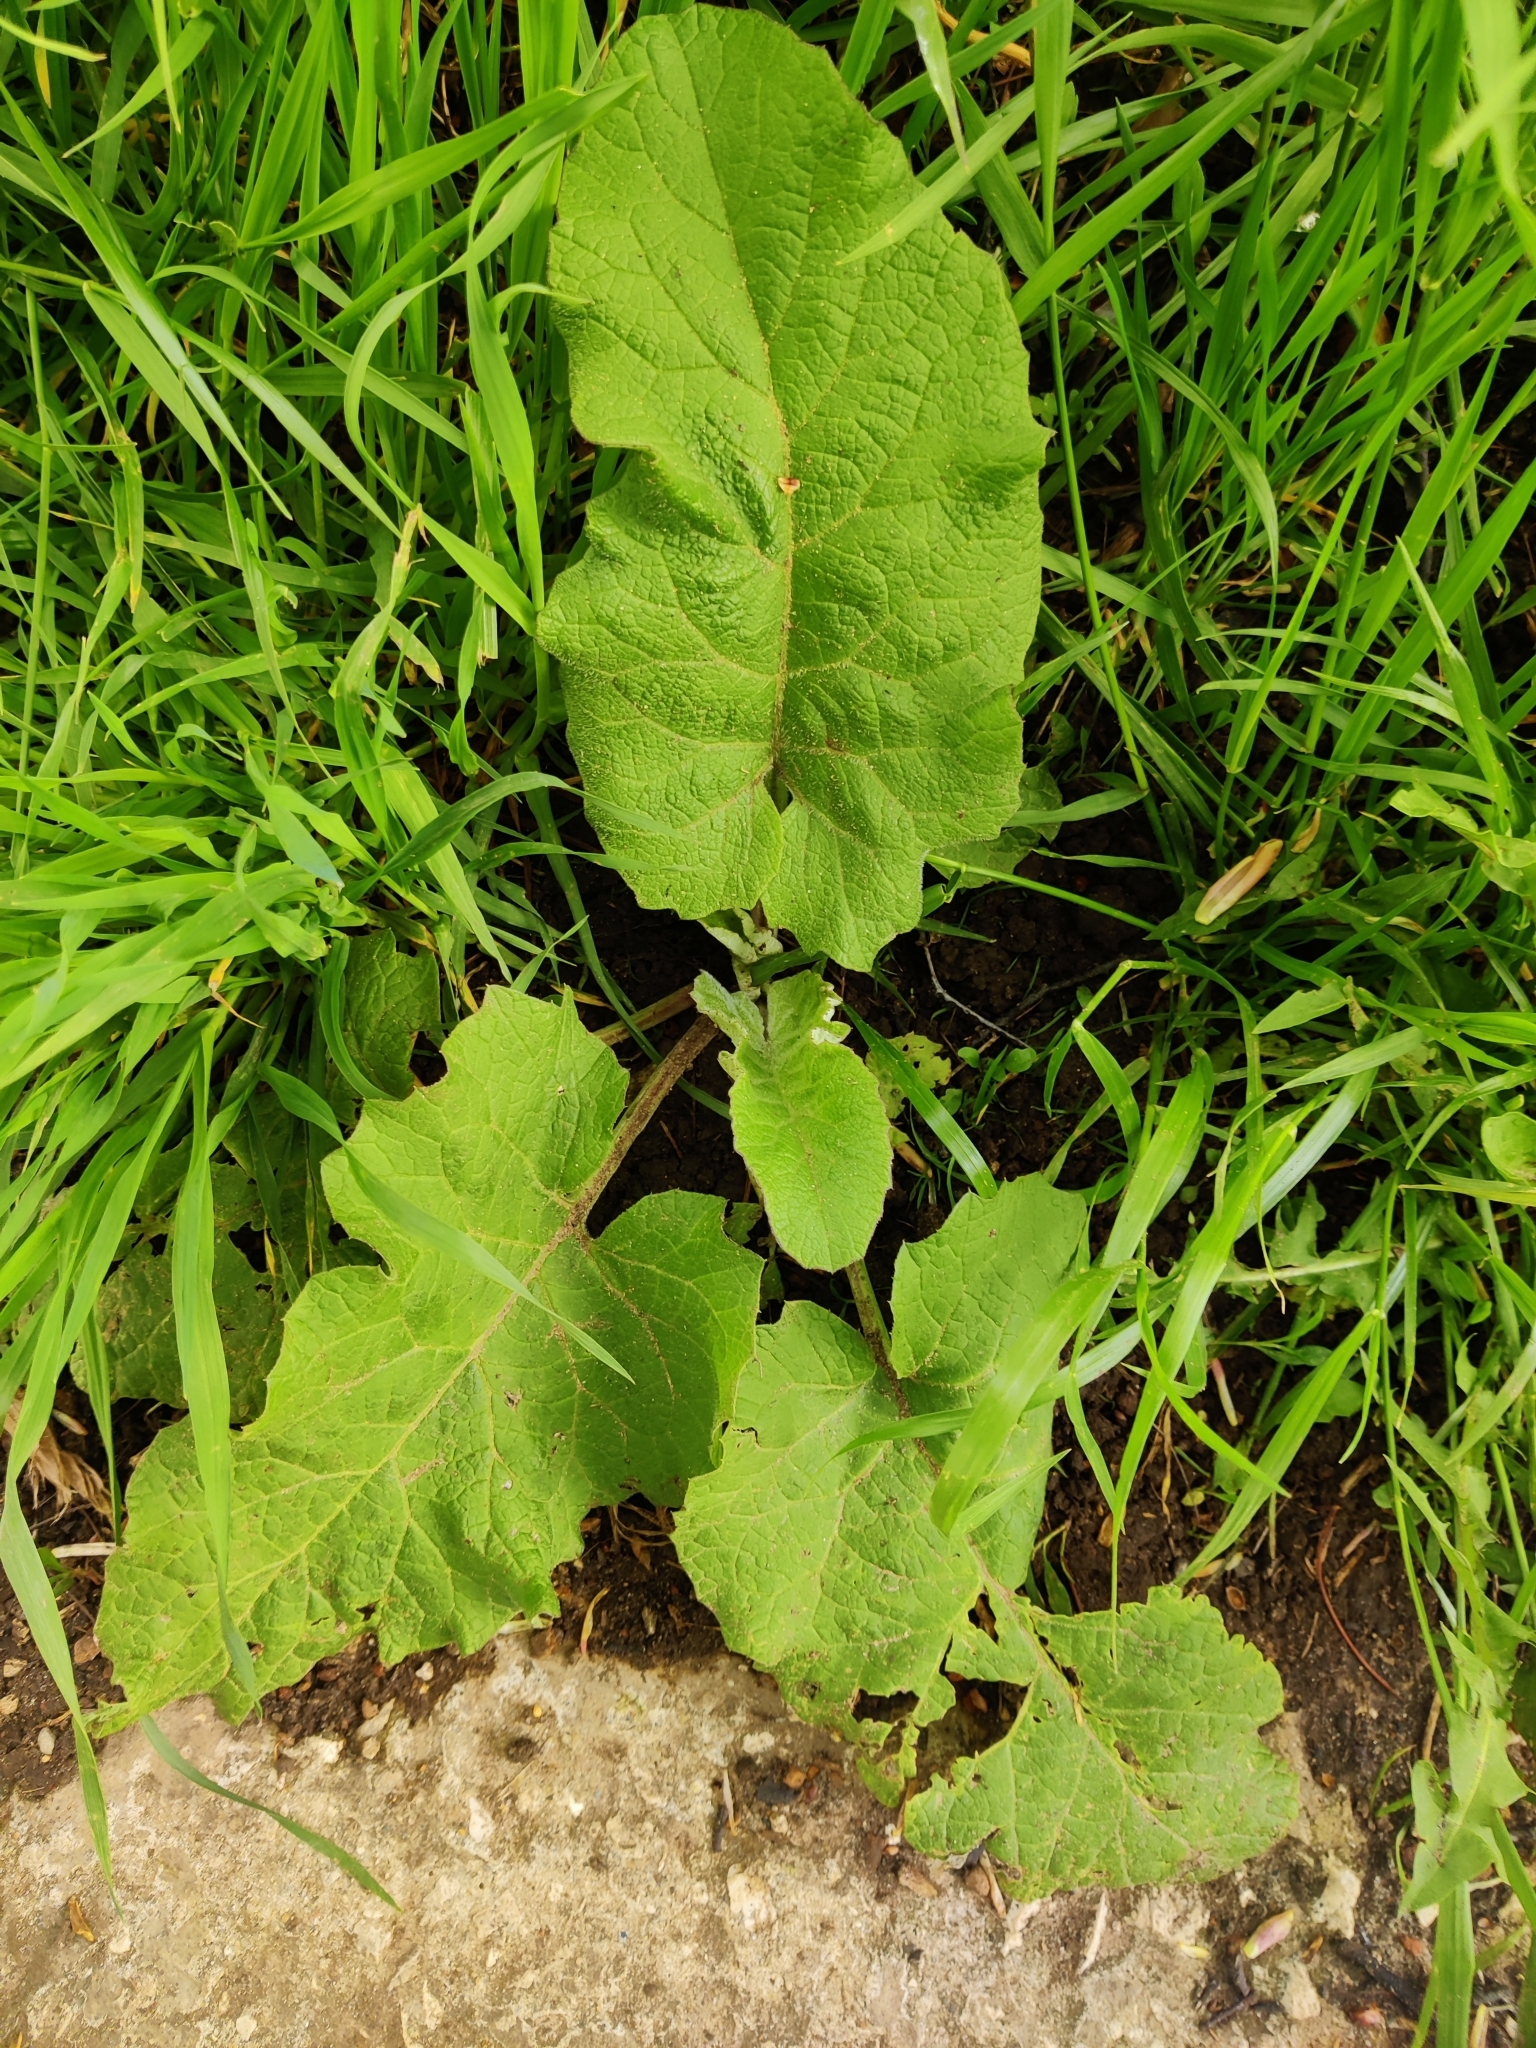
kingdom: Plantae
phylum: Tracheophyta
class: Magnoliopsida
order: Asterales
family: Asteraceae
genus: Arctium
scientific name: Arctium
